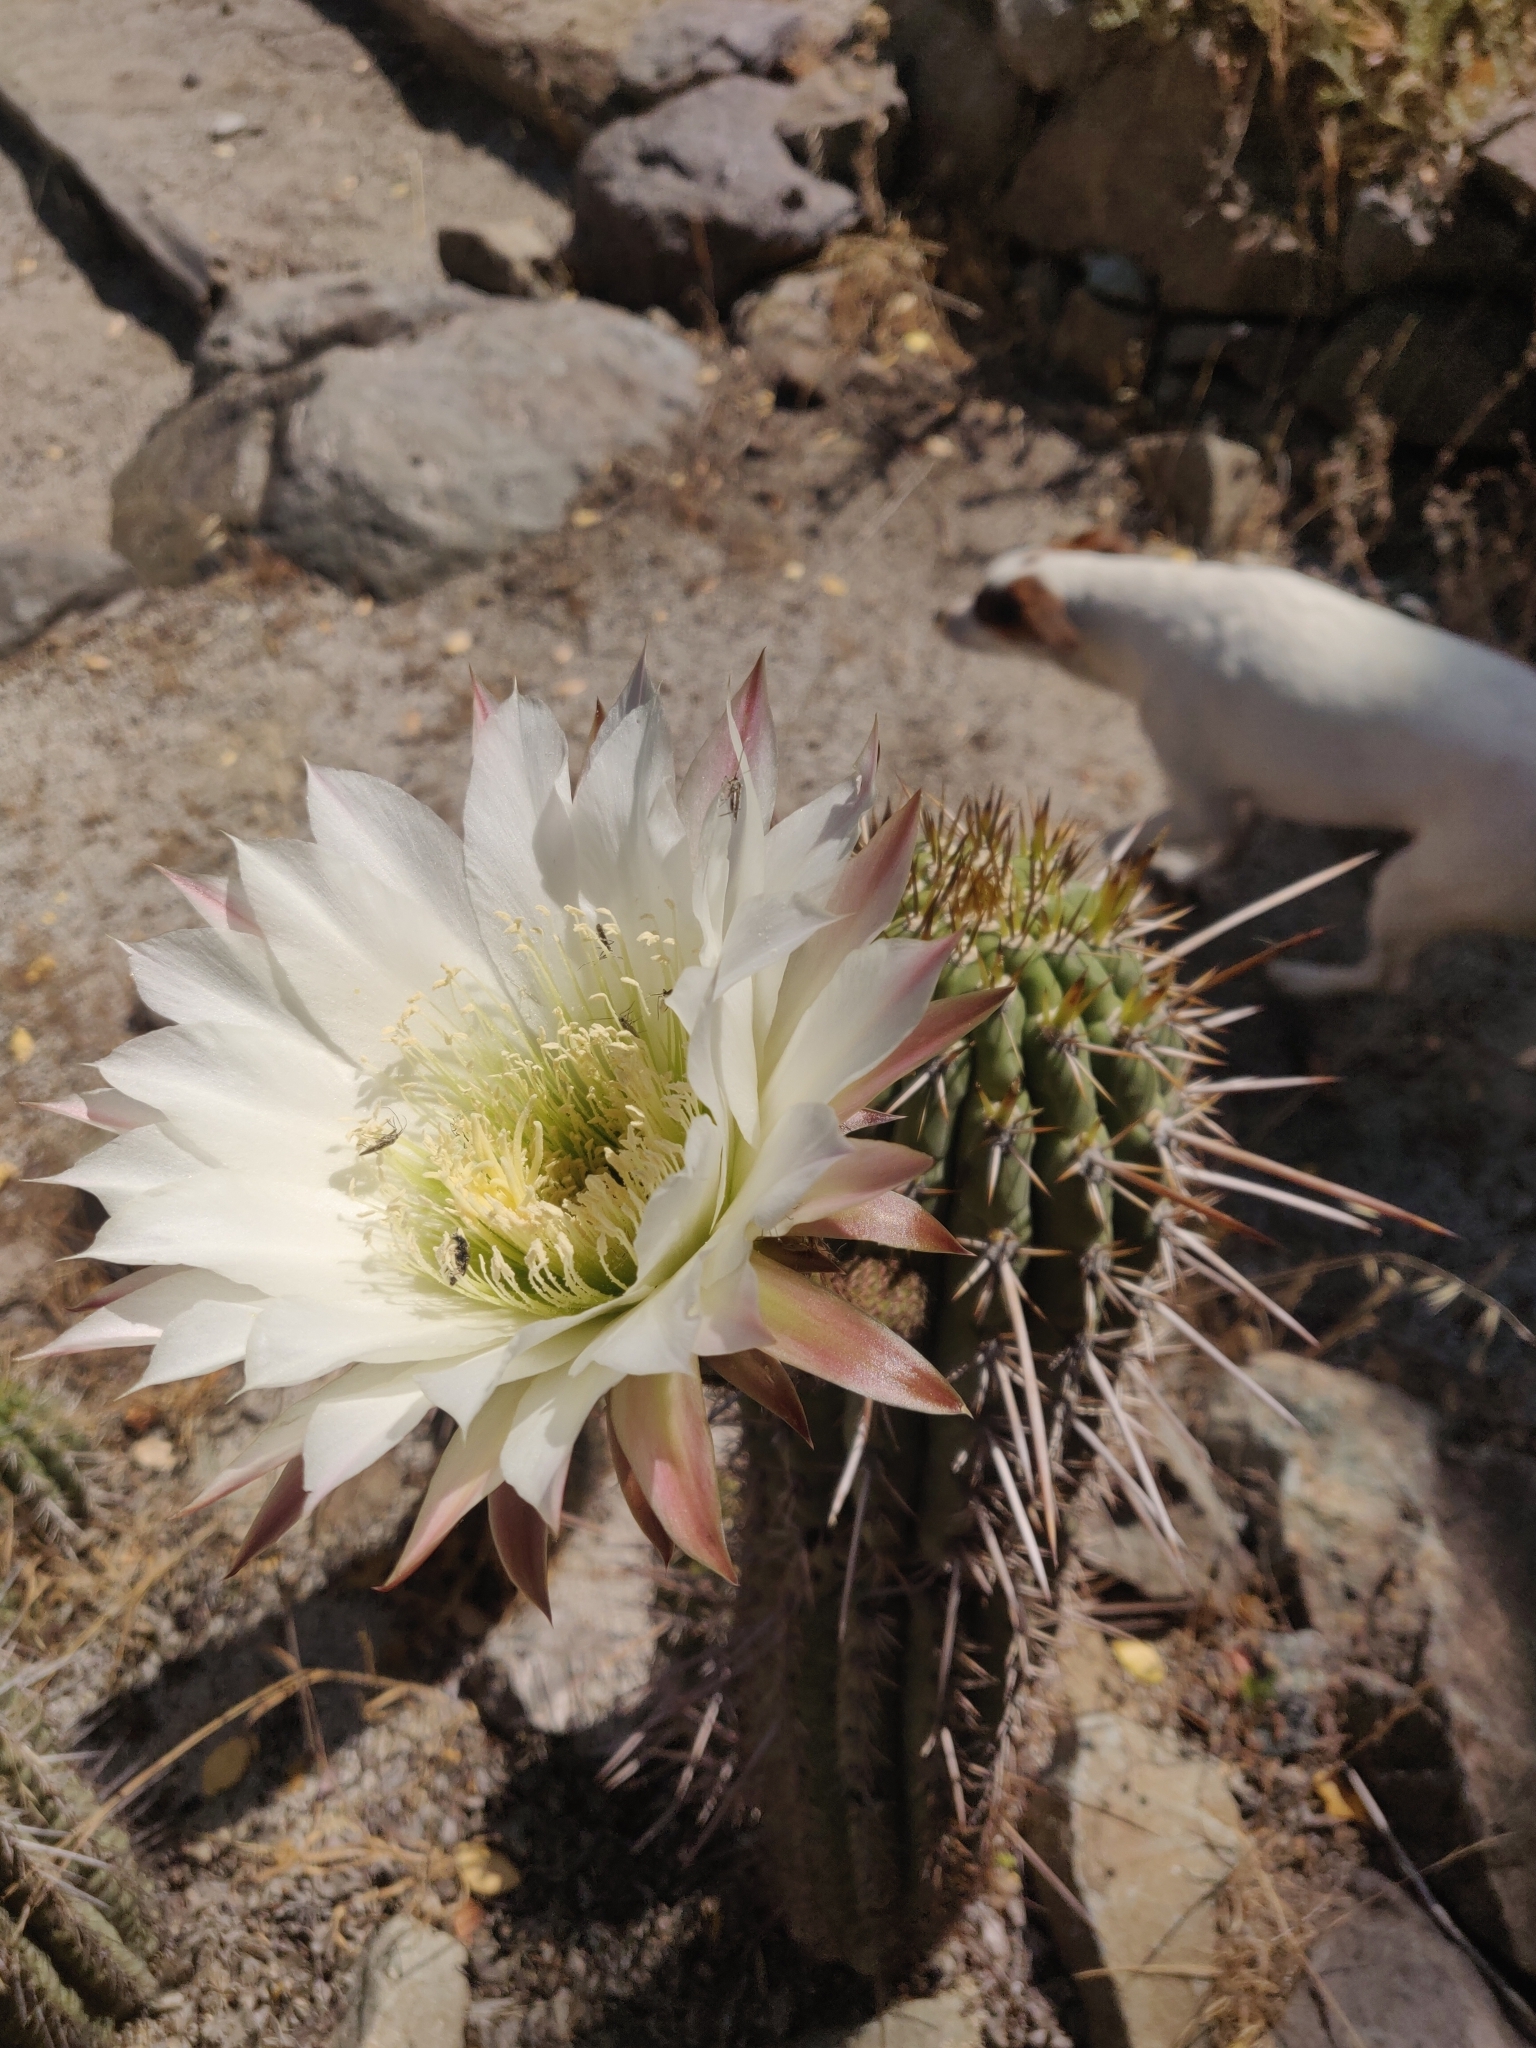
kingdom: Plantae
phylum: Tracheophyta
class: Magnoliopsida
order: Caryophyllales
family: Cactaceae
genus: Leucostele
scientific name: Leucostele chiloensis
